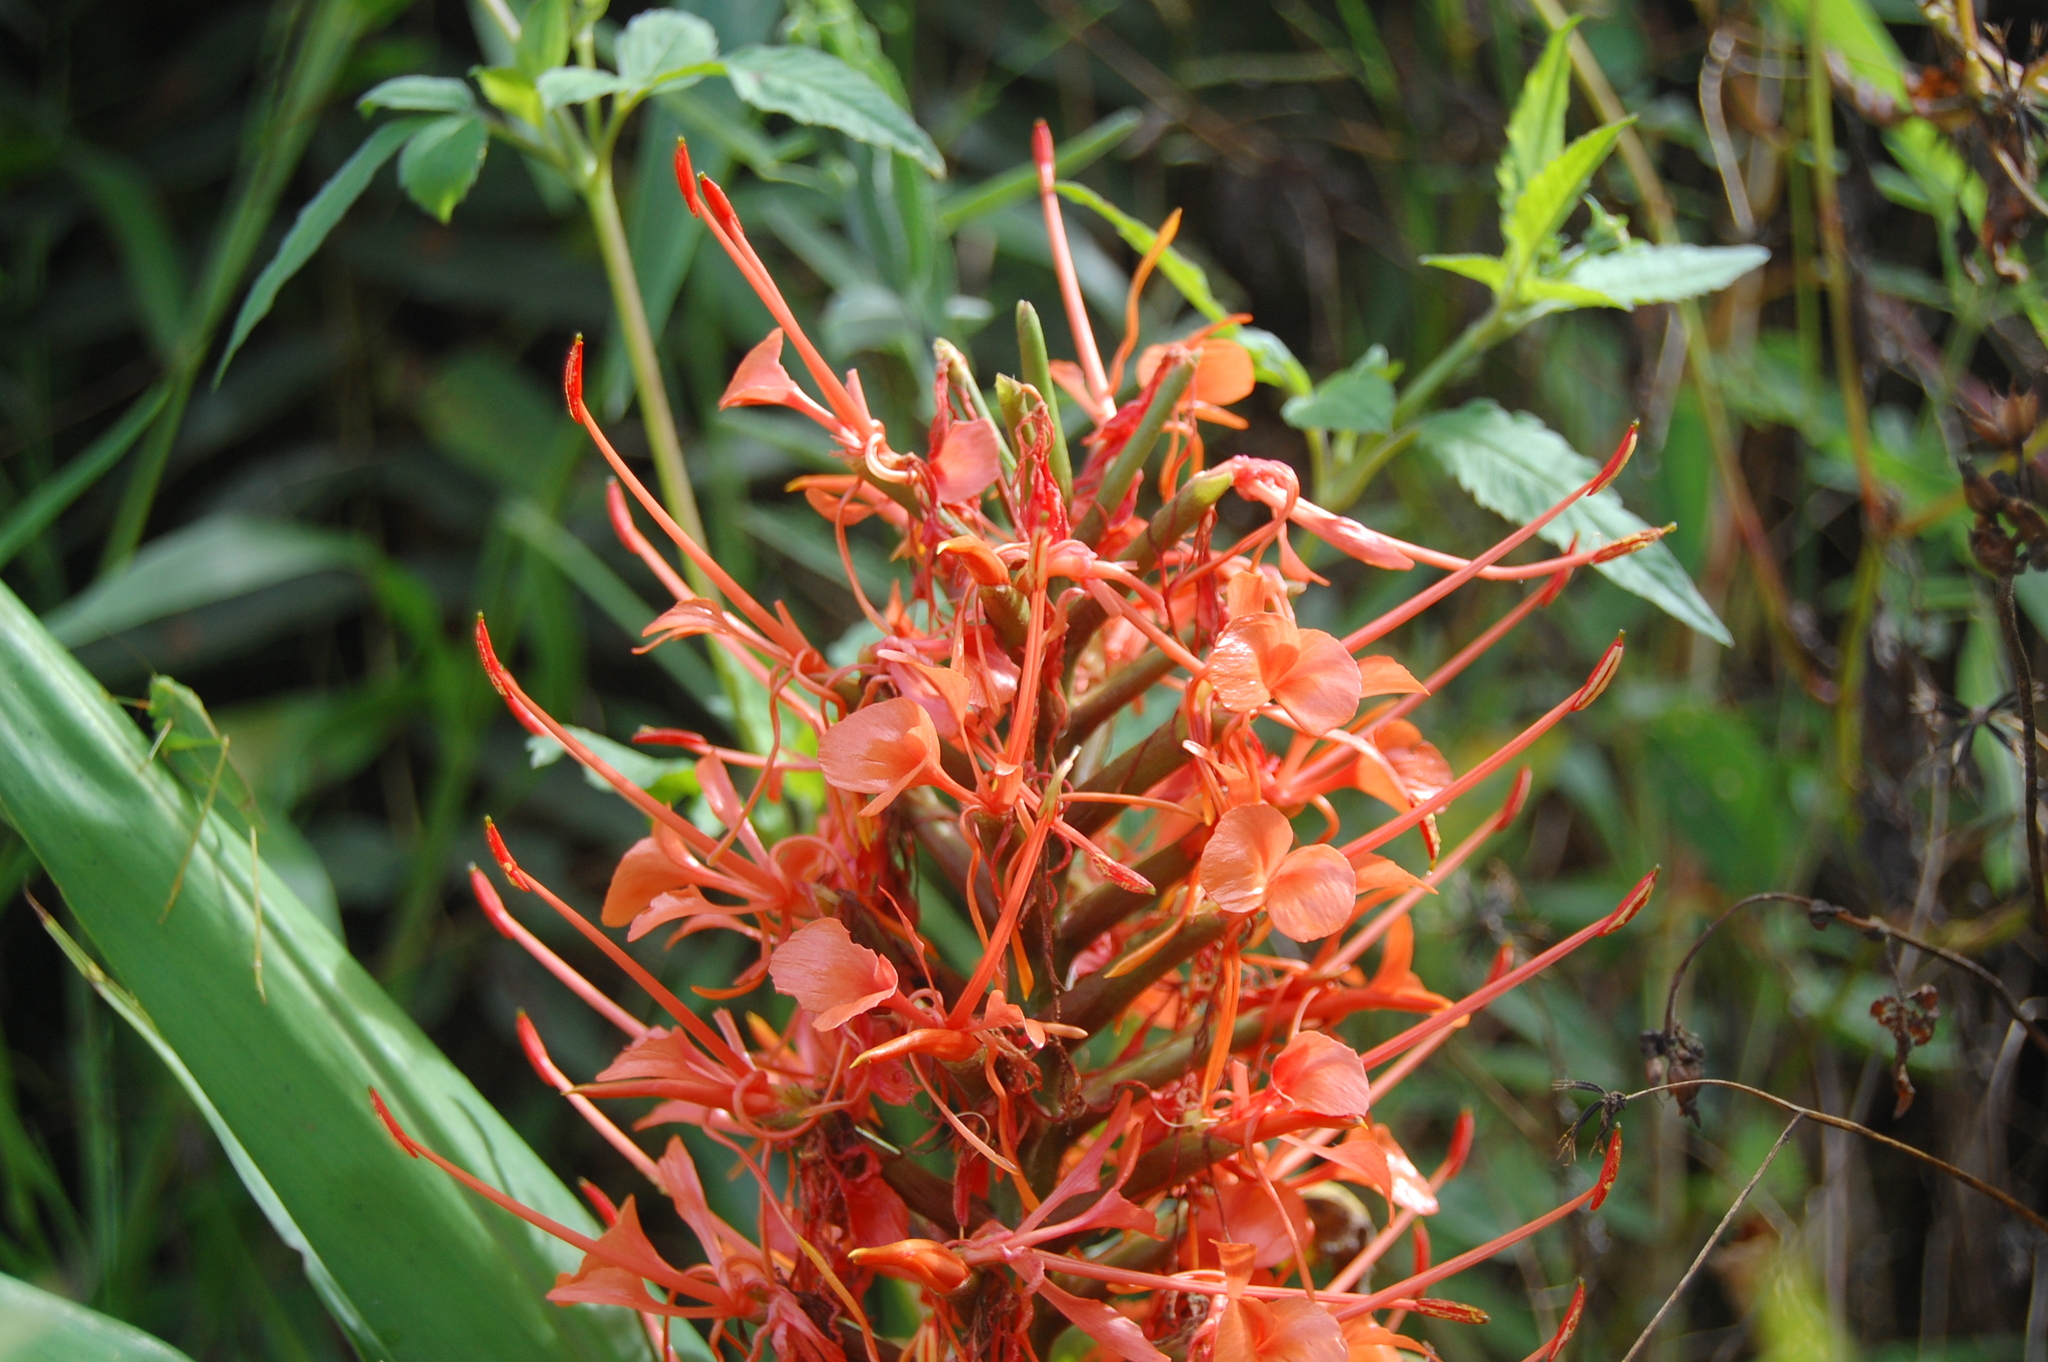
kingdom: Plantae
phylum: Tracheophyta
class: Liliopsida
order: Zingiberales
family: Zingiberaceae
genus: Hedychium
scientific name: Hedychium coccineum
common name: Red ginger-lily
